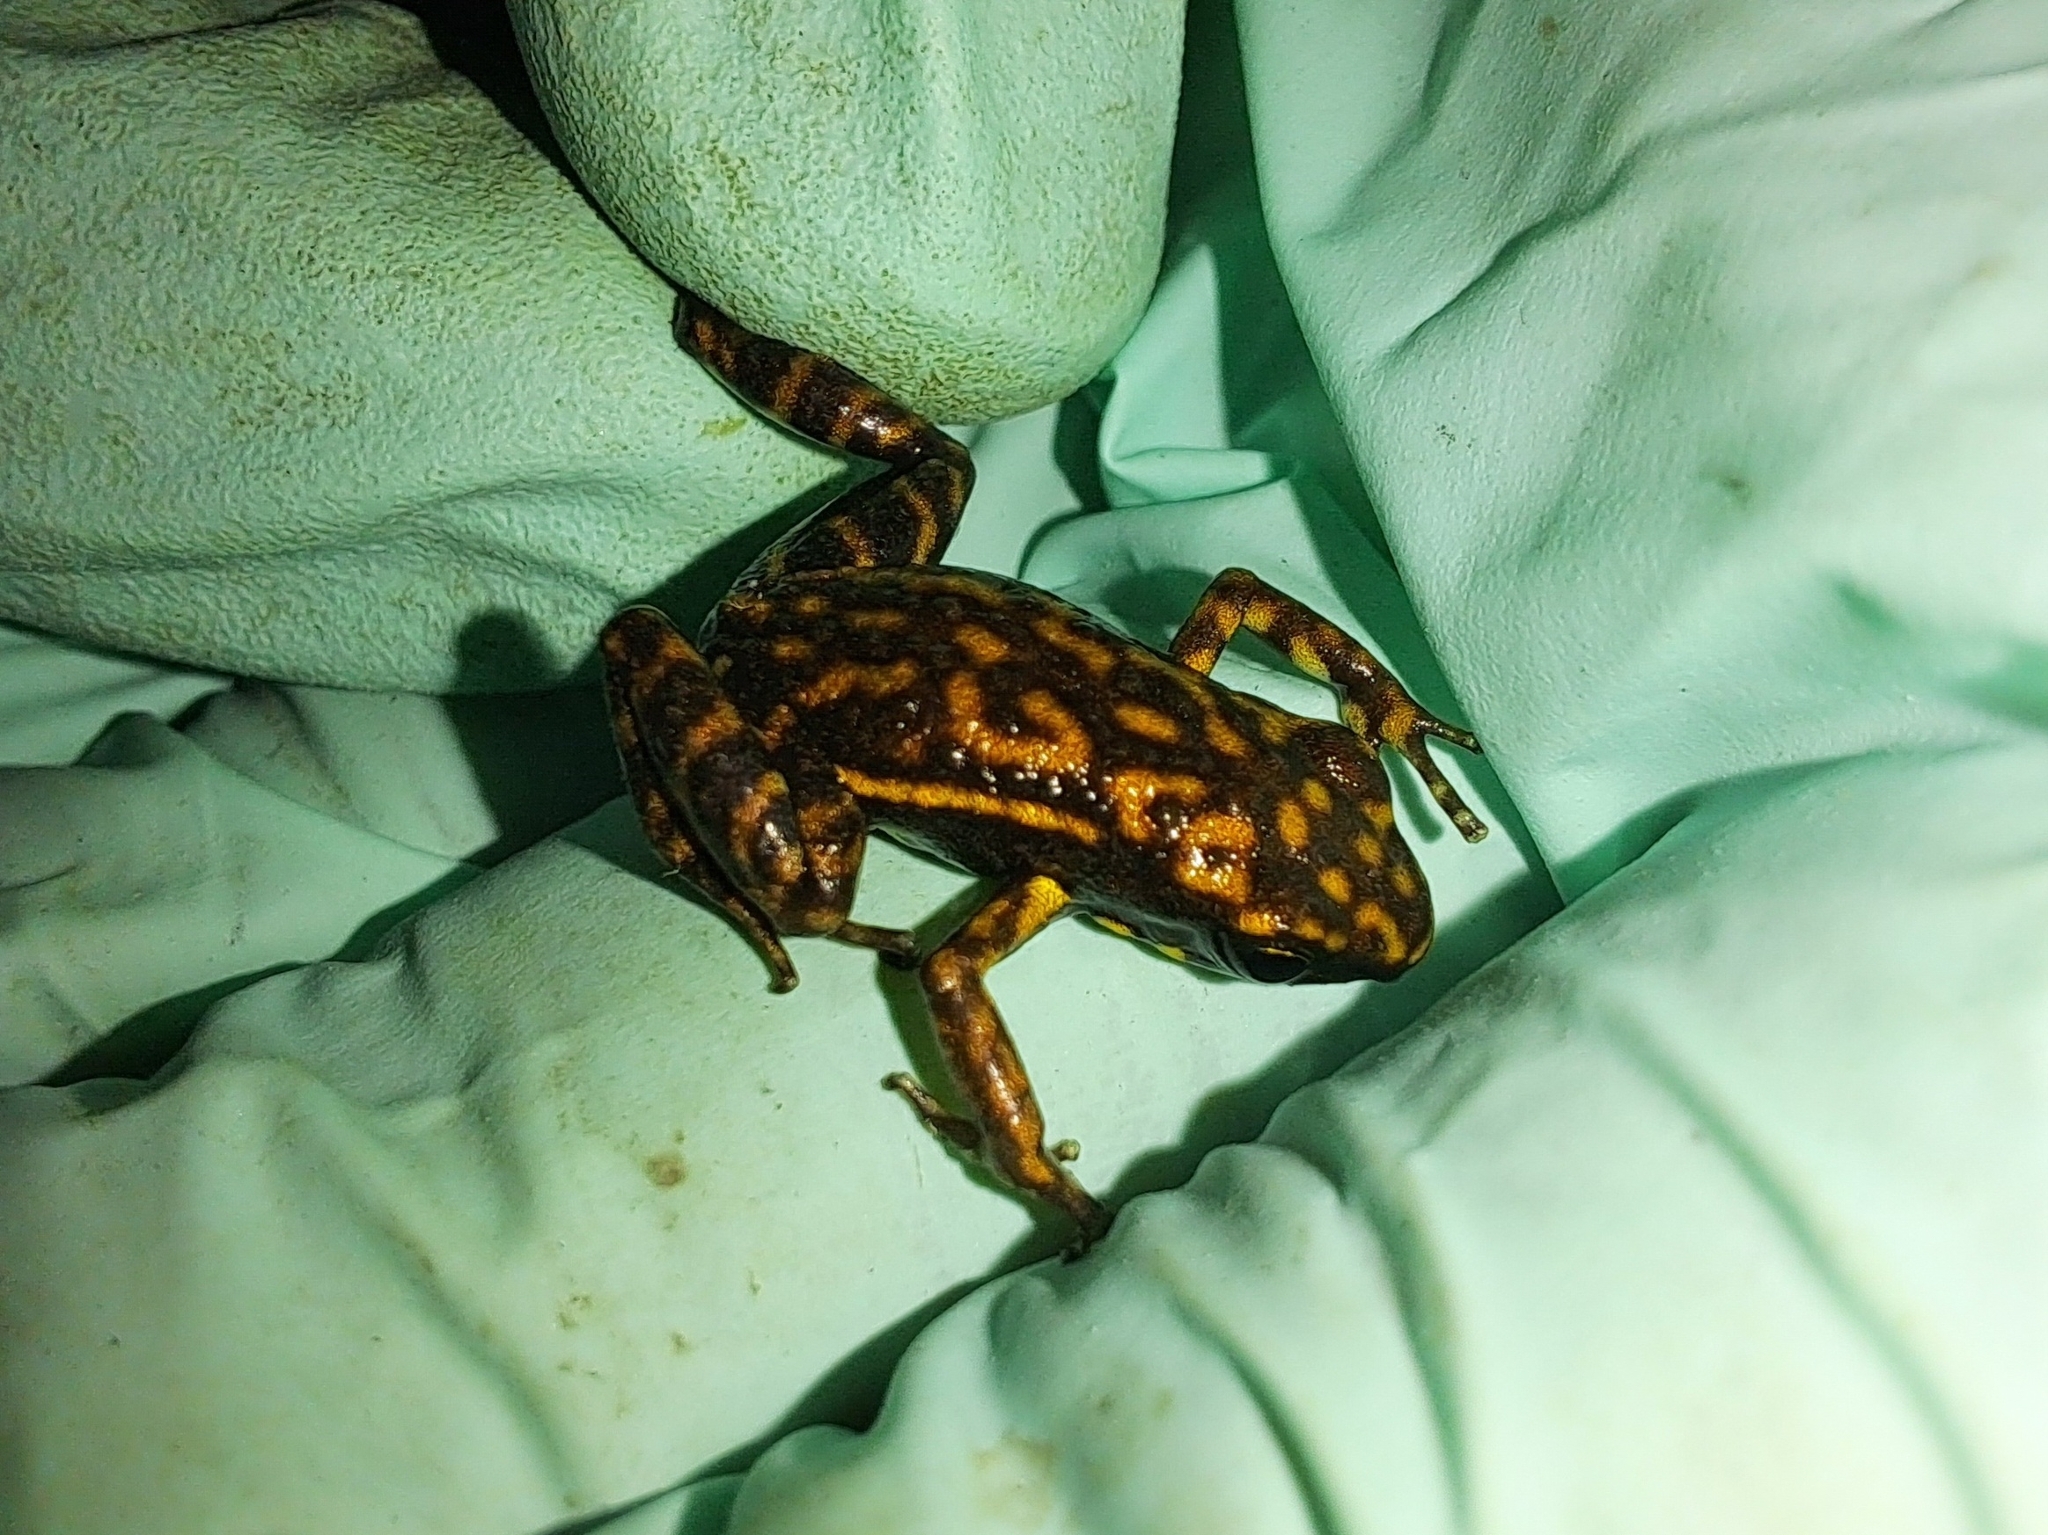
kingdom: Animalia
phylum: Chordata
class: Amphibia
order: Anura
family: Dendrobatidae
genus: Epipedobates
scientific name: Epipedobates darwinwallacei
